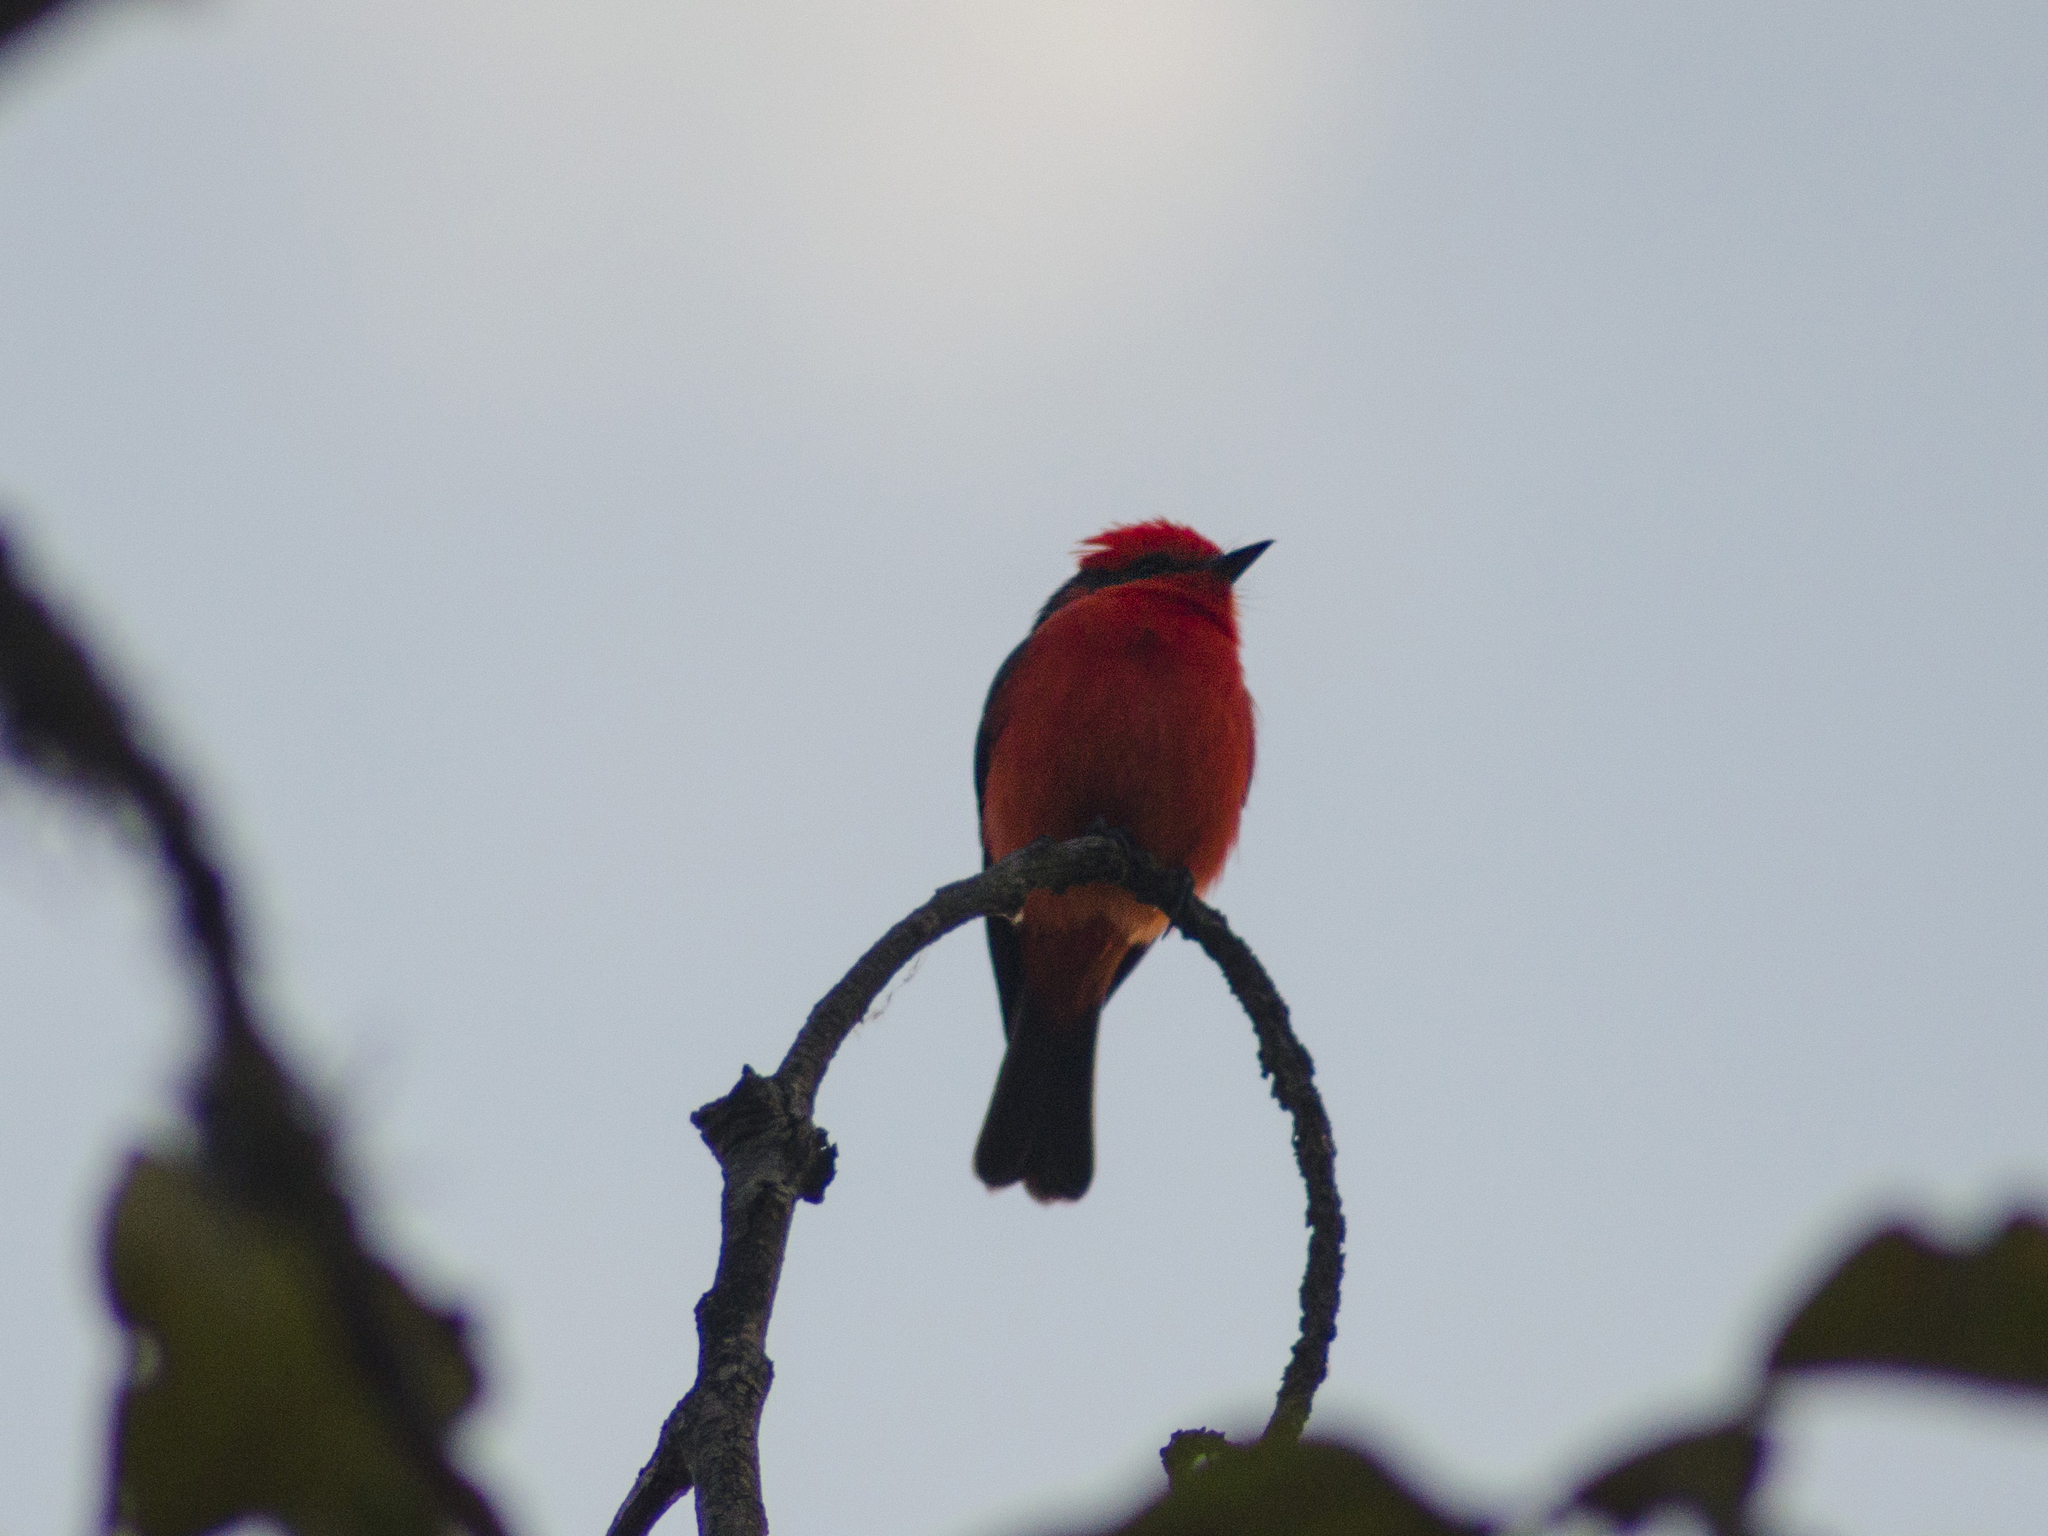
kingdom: Animalia
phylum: Chordata
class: Aves
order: Passeriformes
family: Tyrannidae
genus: Pyrocephalus
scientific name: Pyrocephalus rubinus
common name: Vermilion flycatcher
